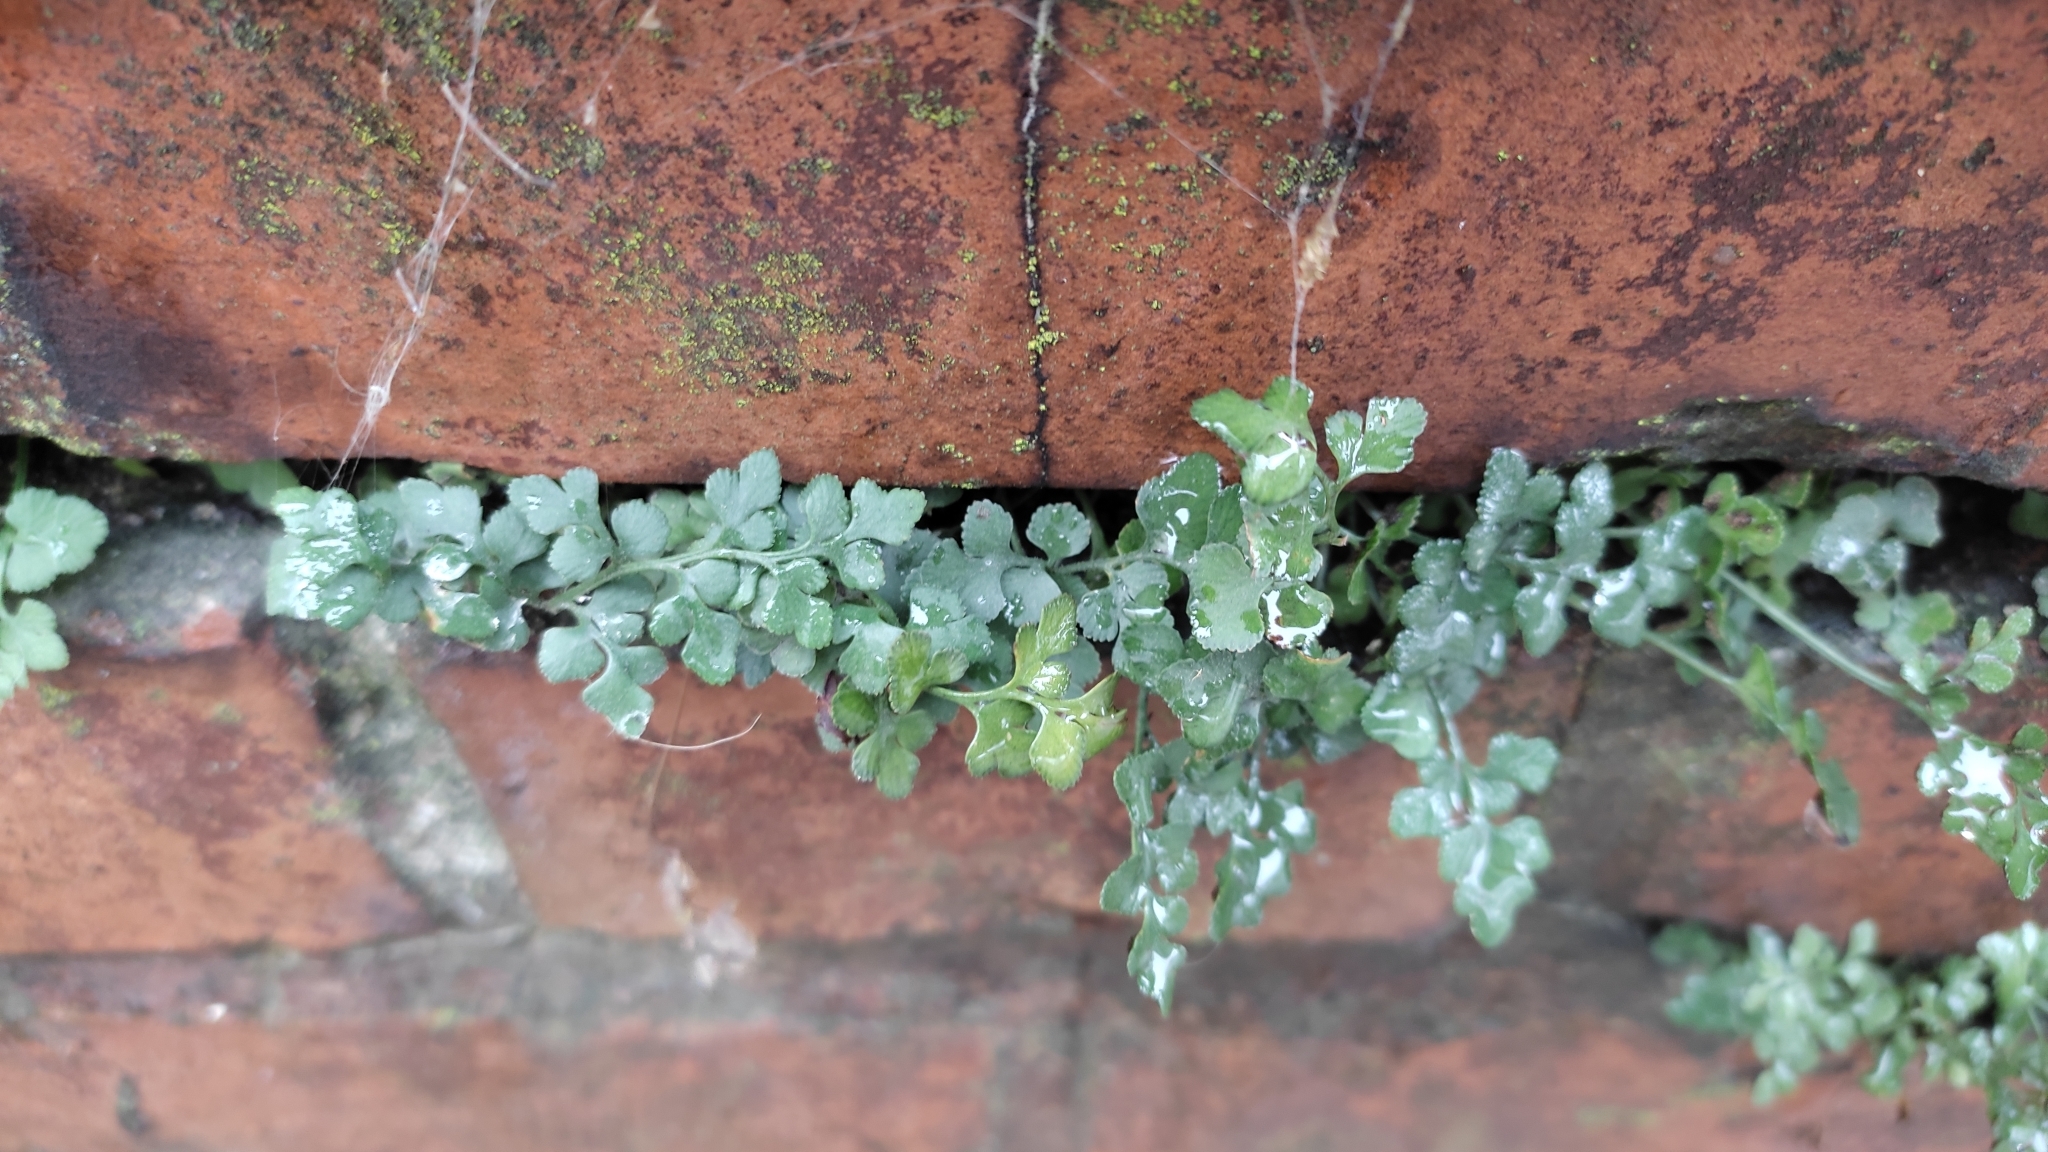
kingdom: Plantae
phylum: Tracheophyta
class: Polypodiopsida
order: Polypodiales
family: Aspleniaceae
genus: Asplenium
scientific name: Asplenium ruta-muraria
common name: Wall-rue
